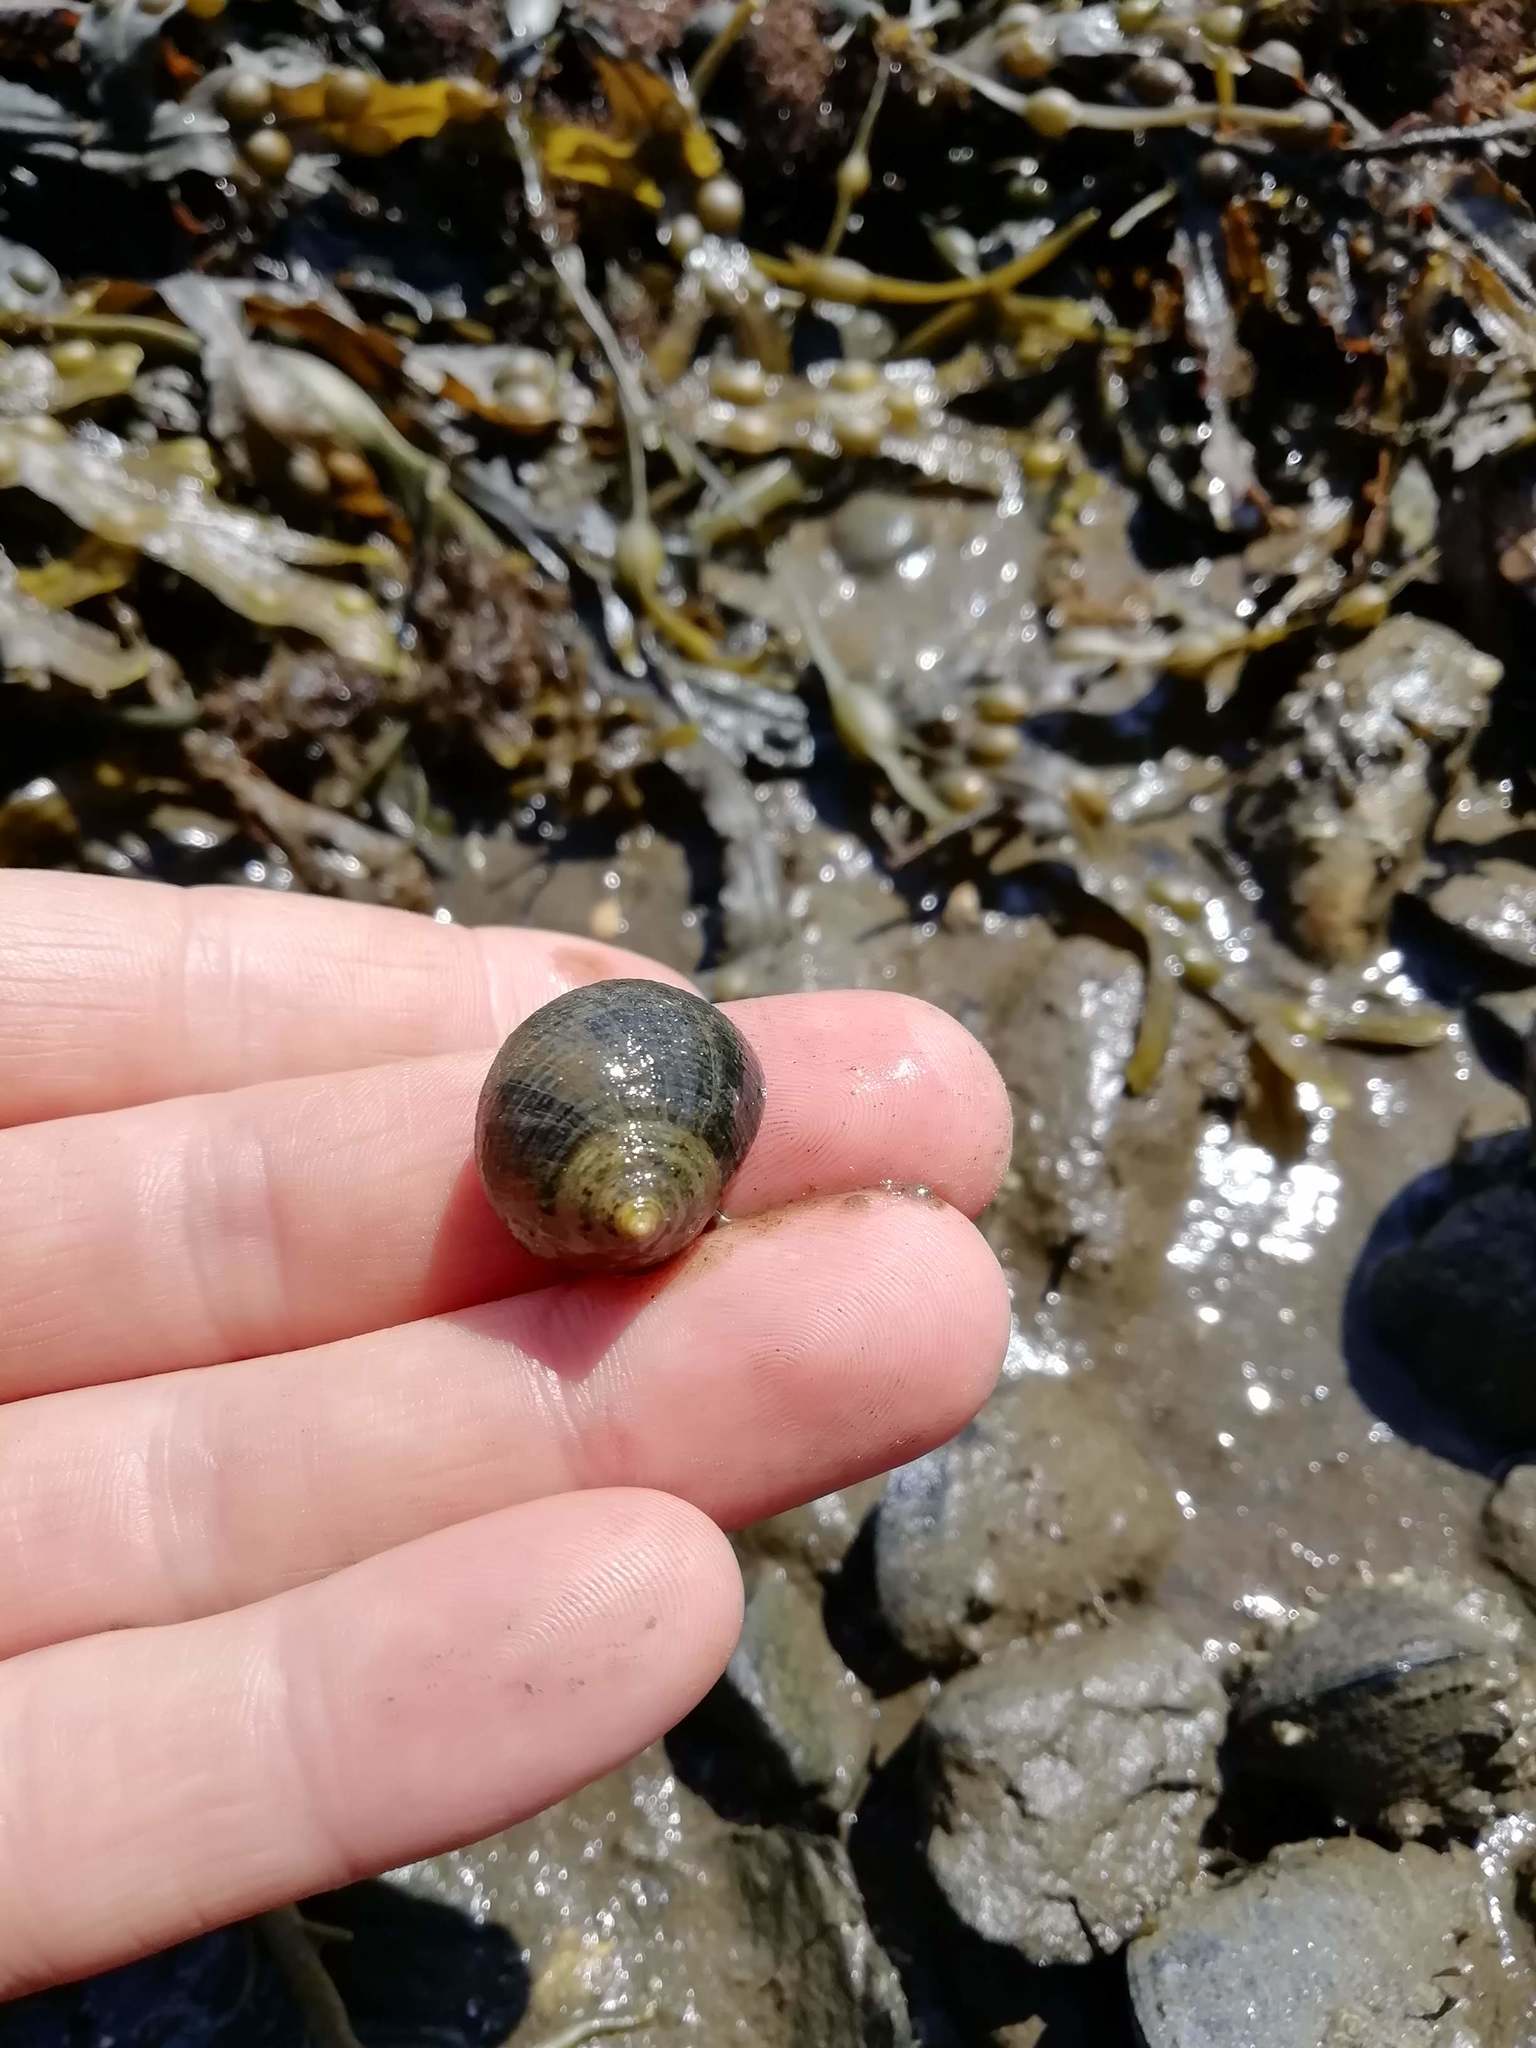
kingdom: Animalia
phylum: Mollusca
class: Gastropoda
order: Littorinimorpha
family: Littorinidae
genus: Littorina
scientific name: Littorina littorea
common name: Common periwinkle
